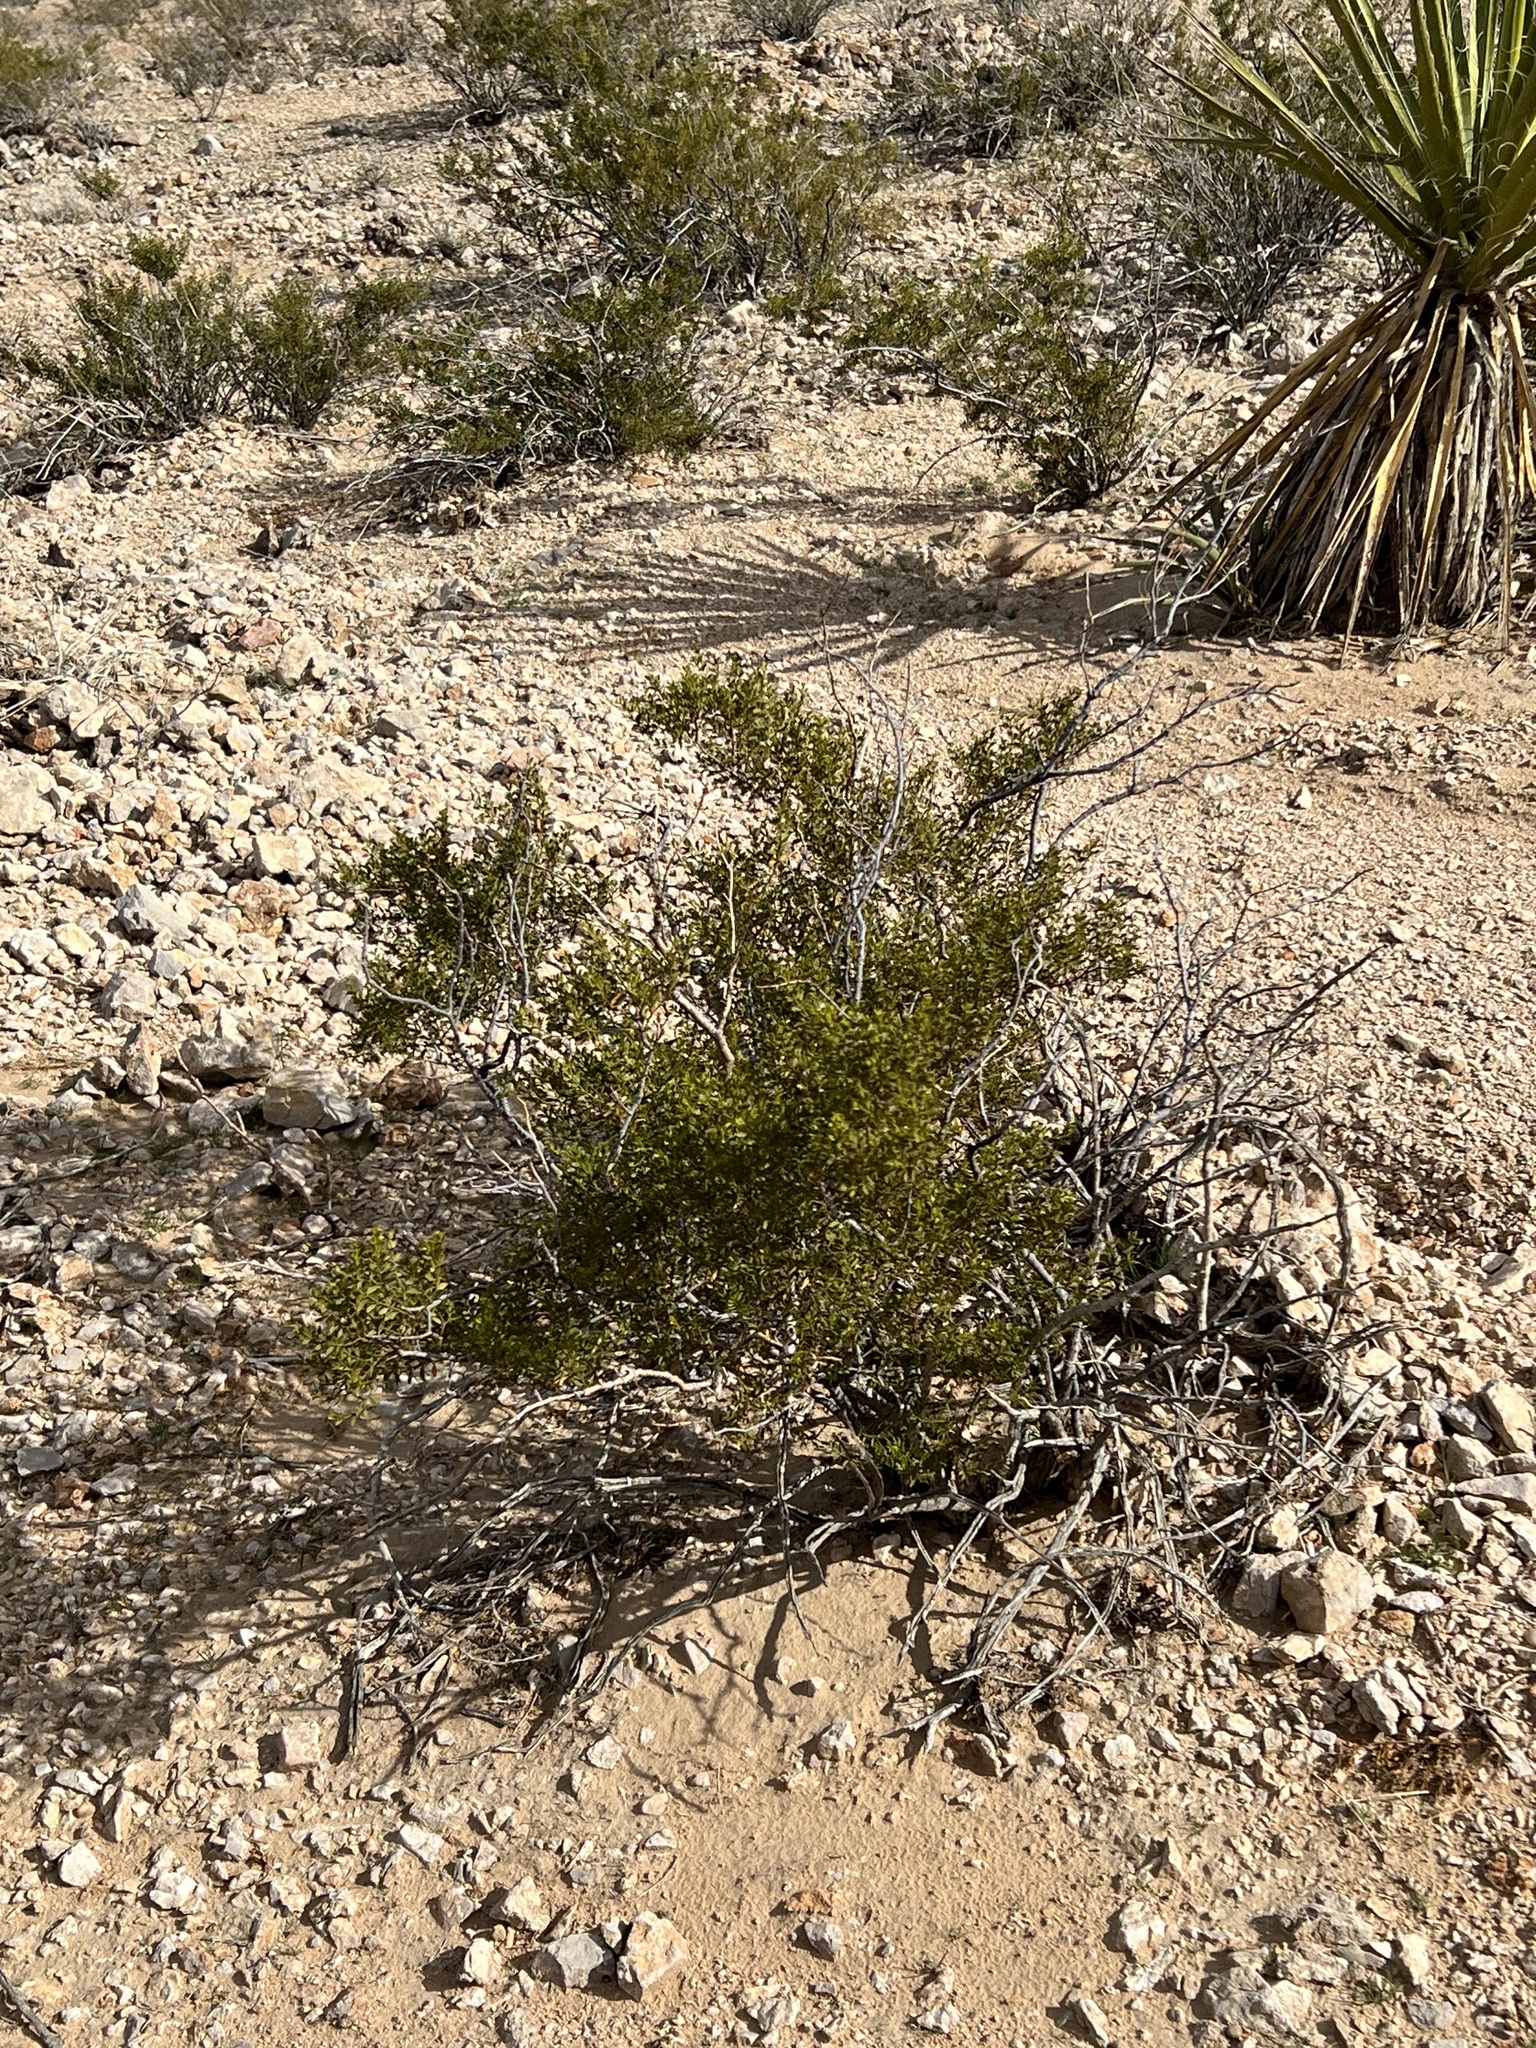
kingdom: Plantae
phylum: Tracheophyta
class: Magnoliopsida
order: Zygophyllales
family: Zygophyllaceae
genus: Larrea
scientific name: Larrea tridentata
